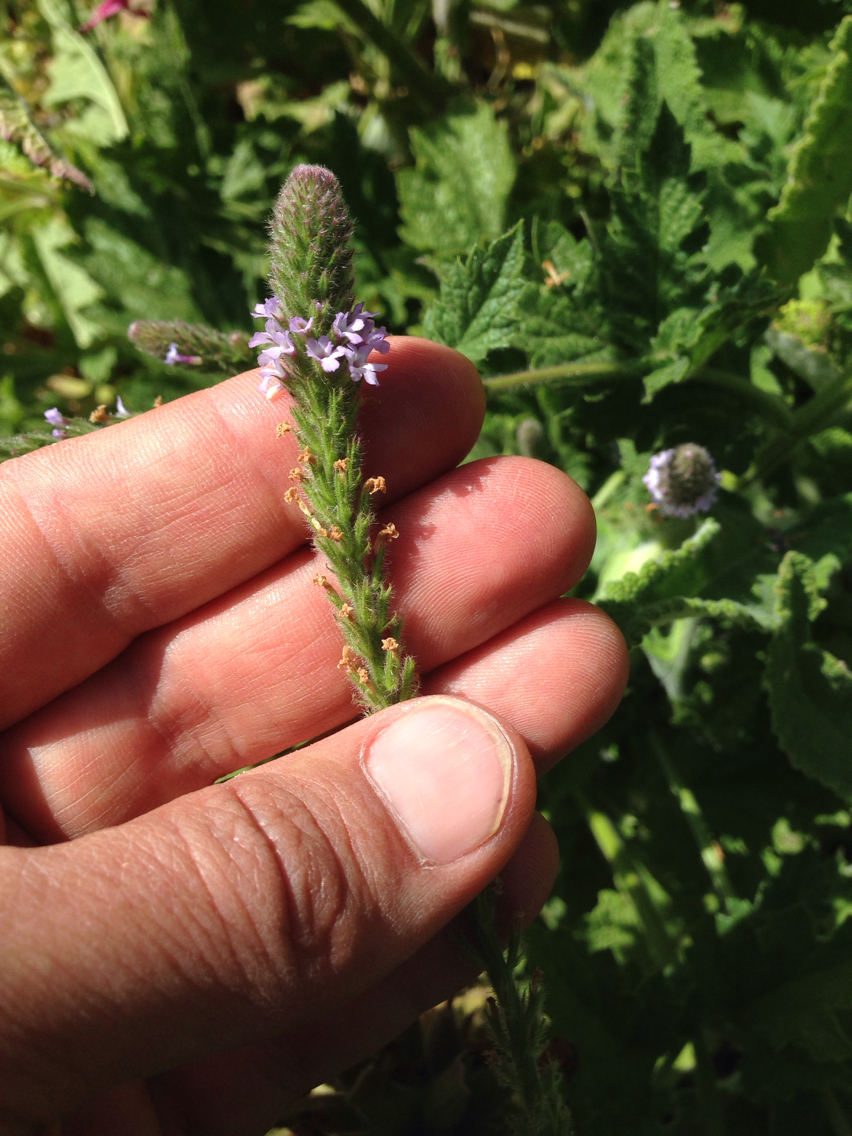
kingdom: Plantae
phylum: Tracheophyta
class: Magnoliopsida
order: Lamiales
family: Verbenaceae
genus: Verbena
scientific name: Verbena lasiostachys
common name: Vervain
